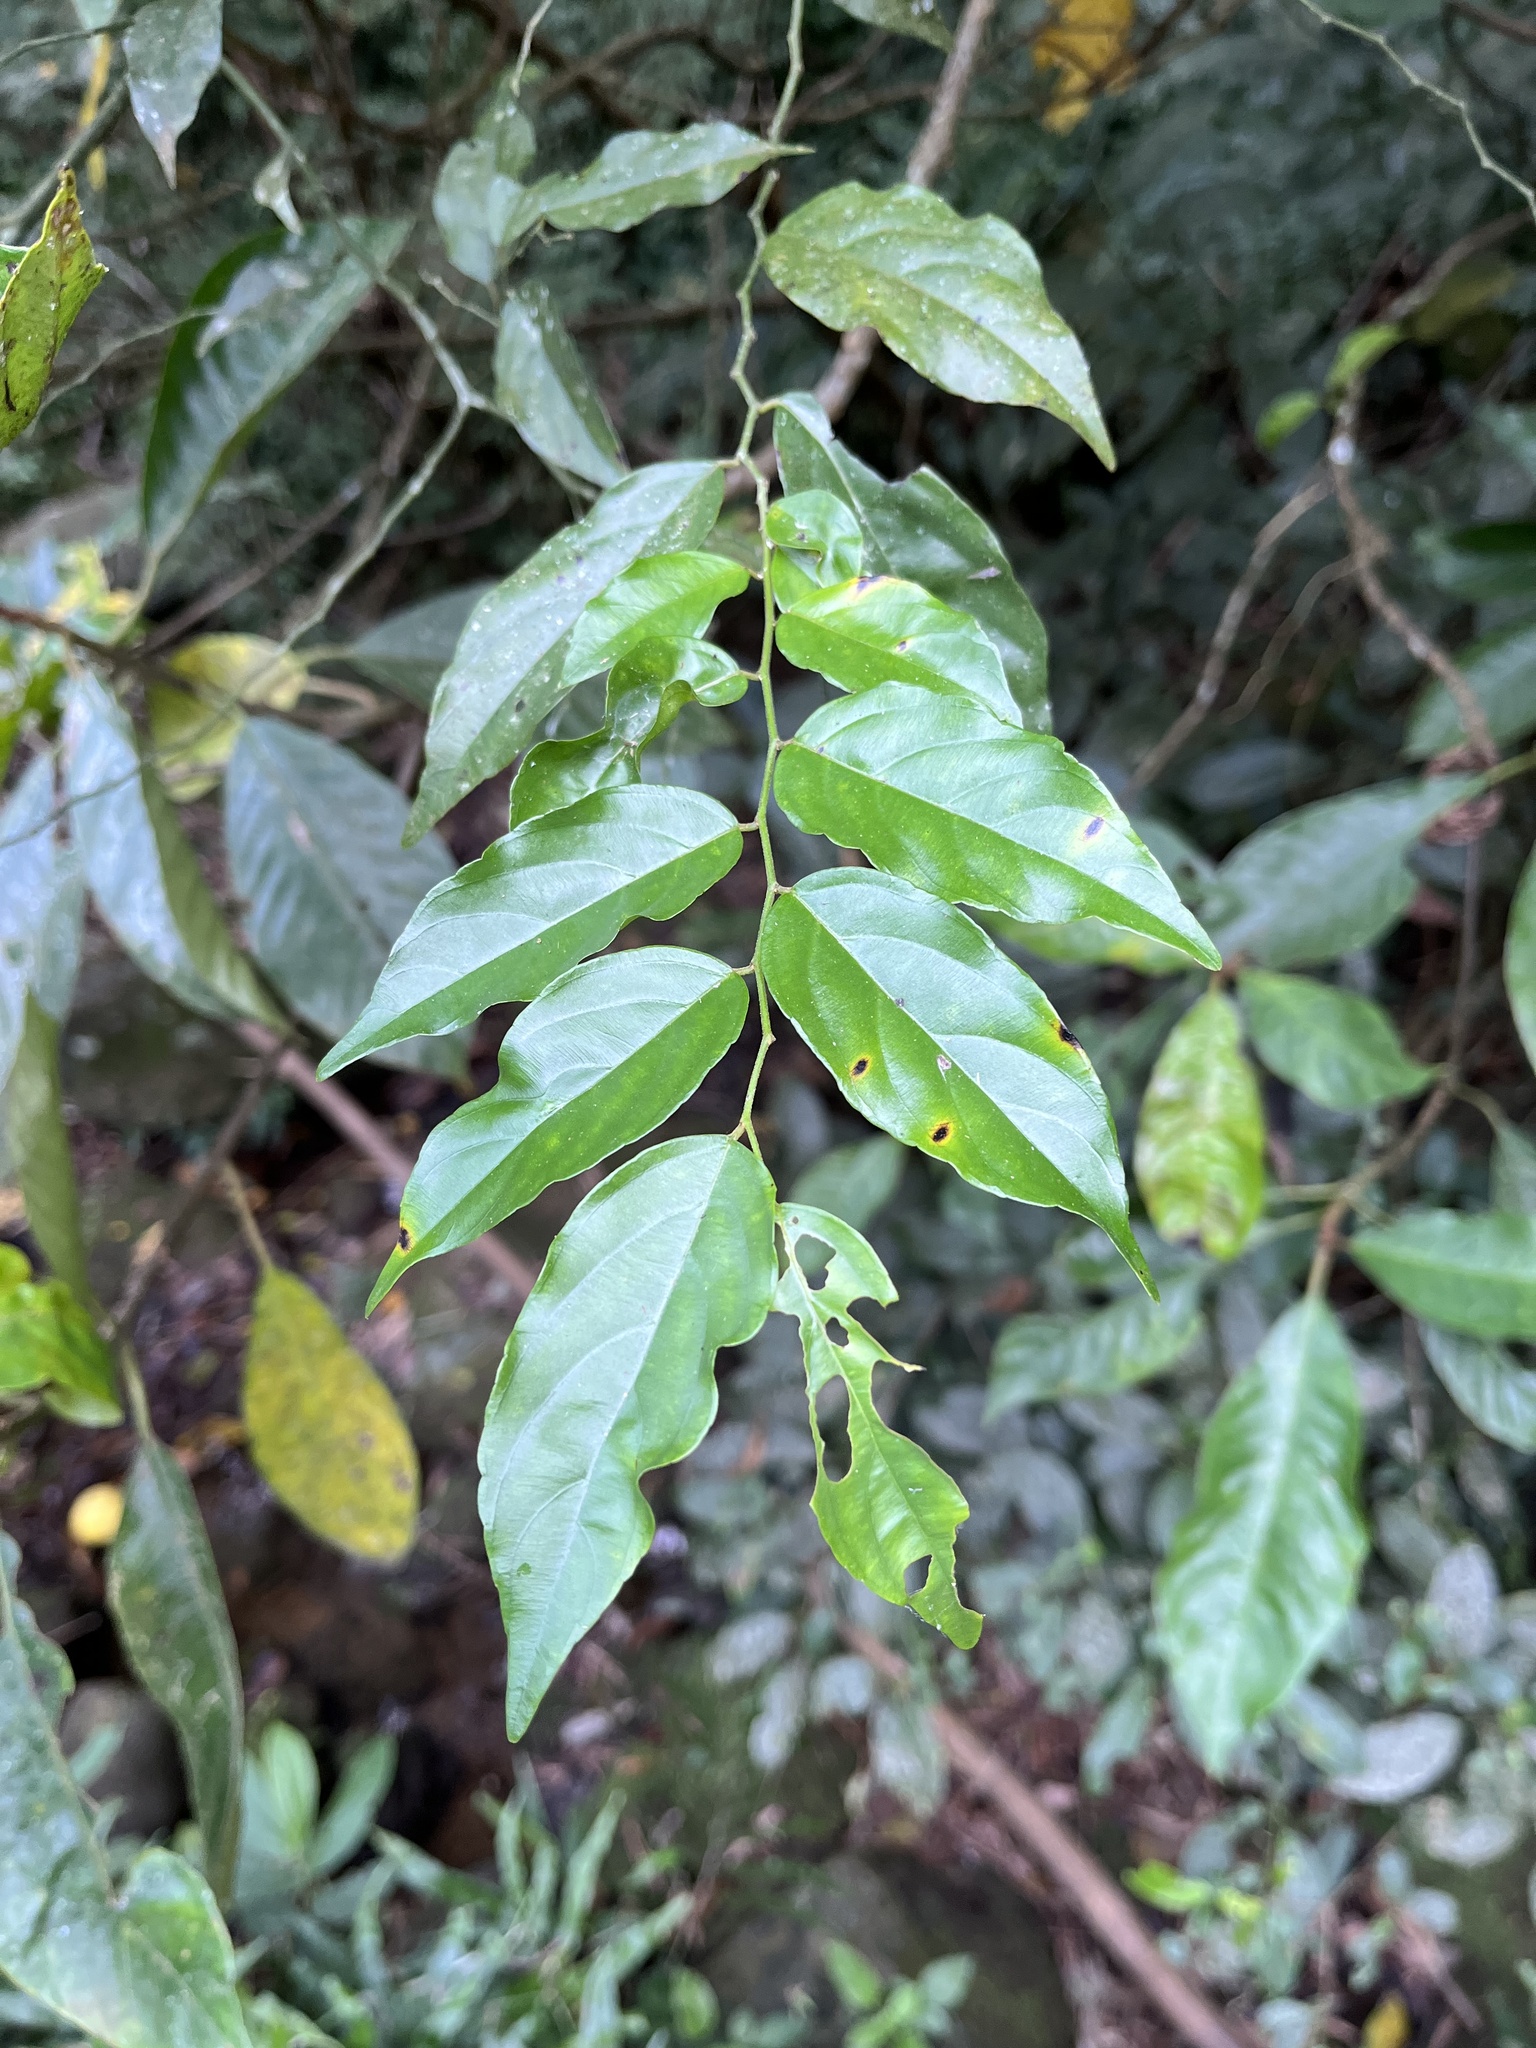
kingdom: Plantae
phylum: Tracheophyta
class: Magnoliopsida
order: Rosales
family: Rhamnaceae
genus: Ventilago
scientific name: Ventilago leiocarpa
